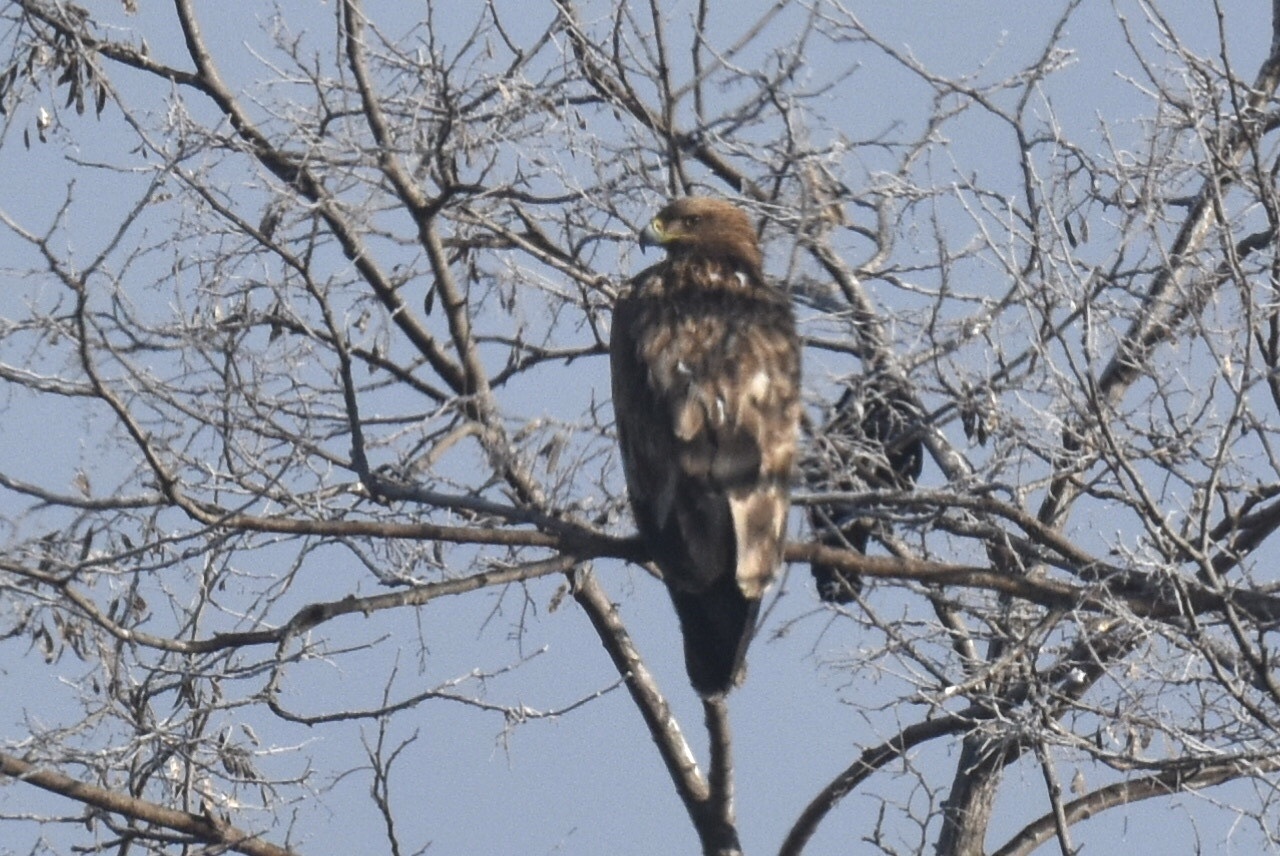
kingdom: Animalia
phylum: Chordata
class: Aves
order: Accipitriformes
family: Accipitridae
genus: Aquila
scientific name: Aquila heliaca
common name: Eastern imperial eagle
